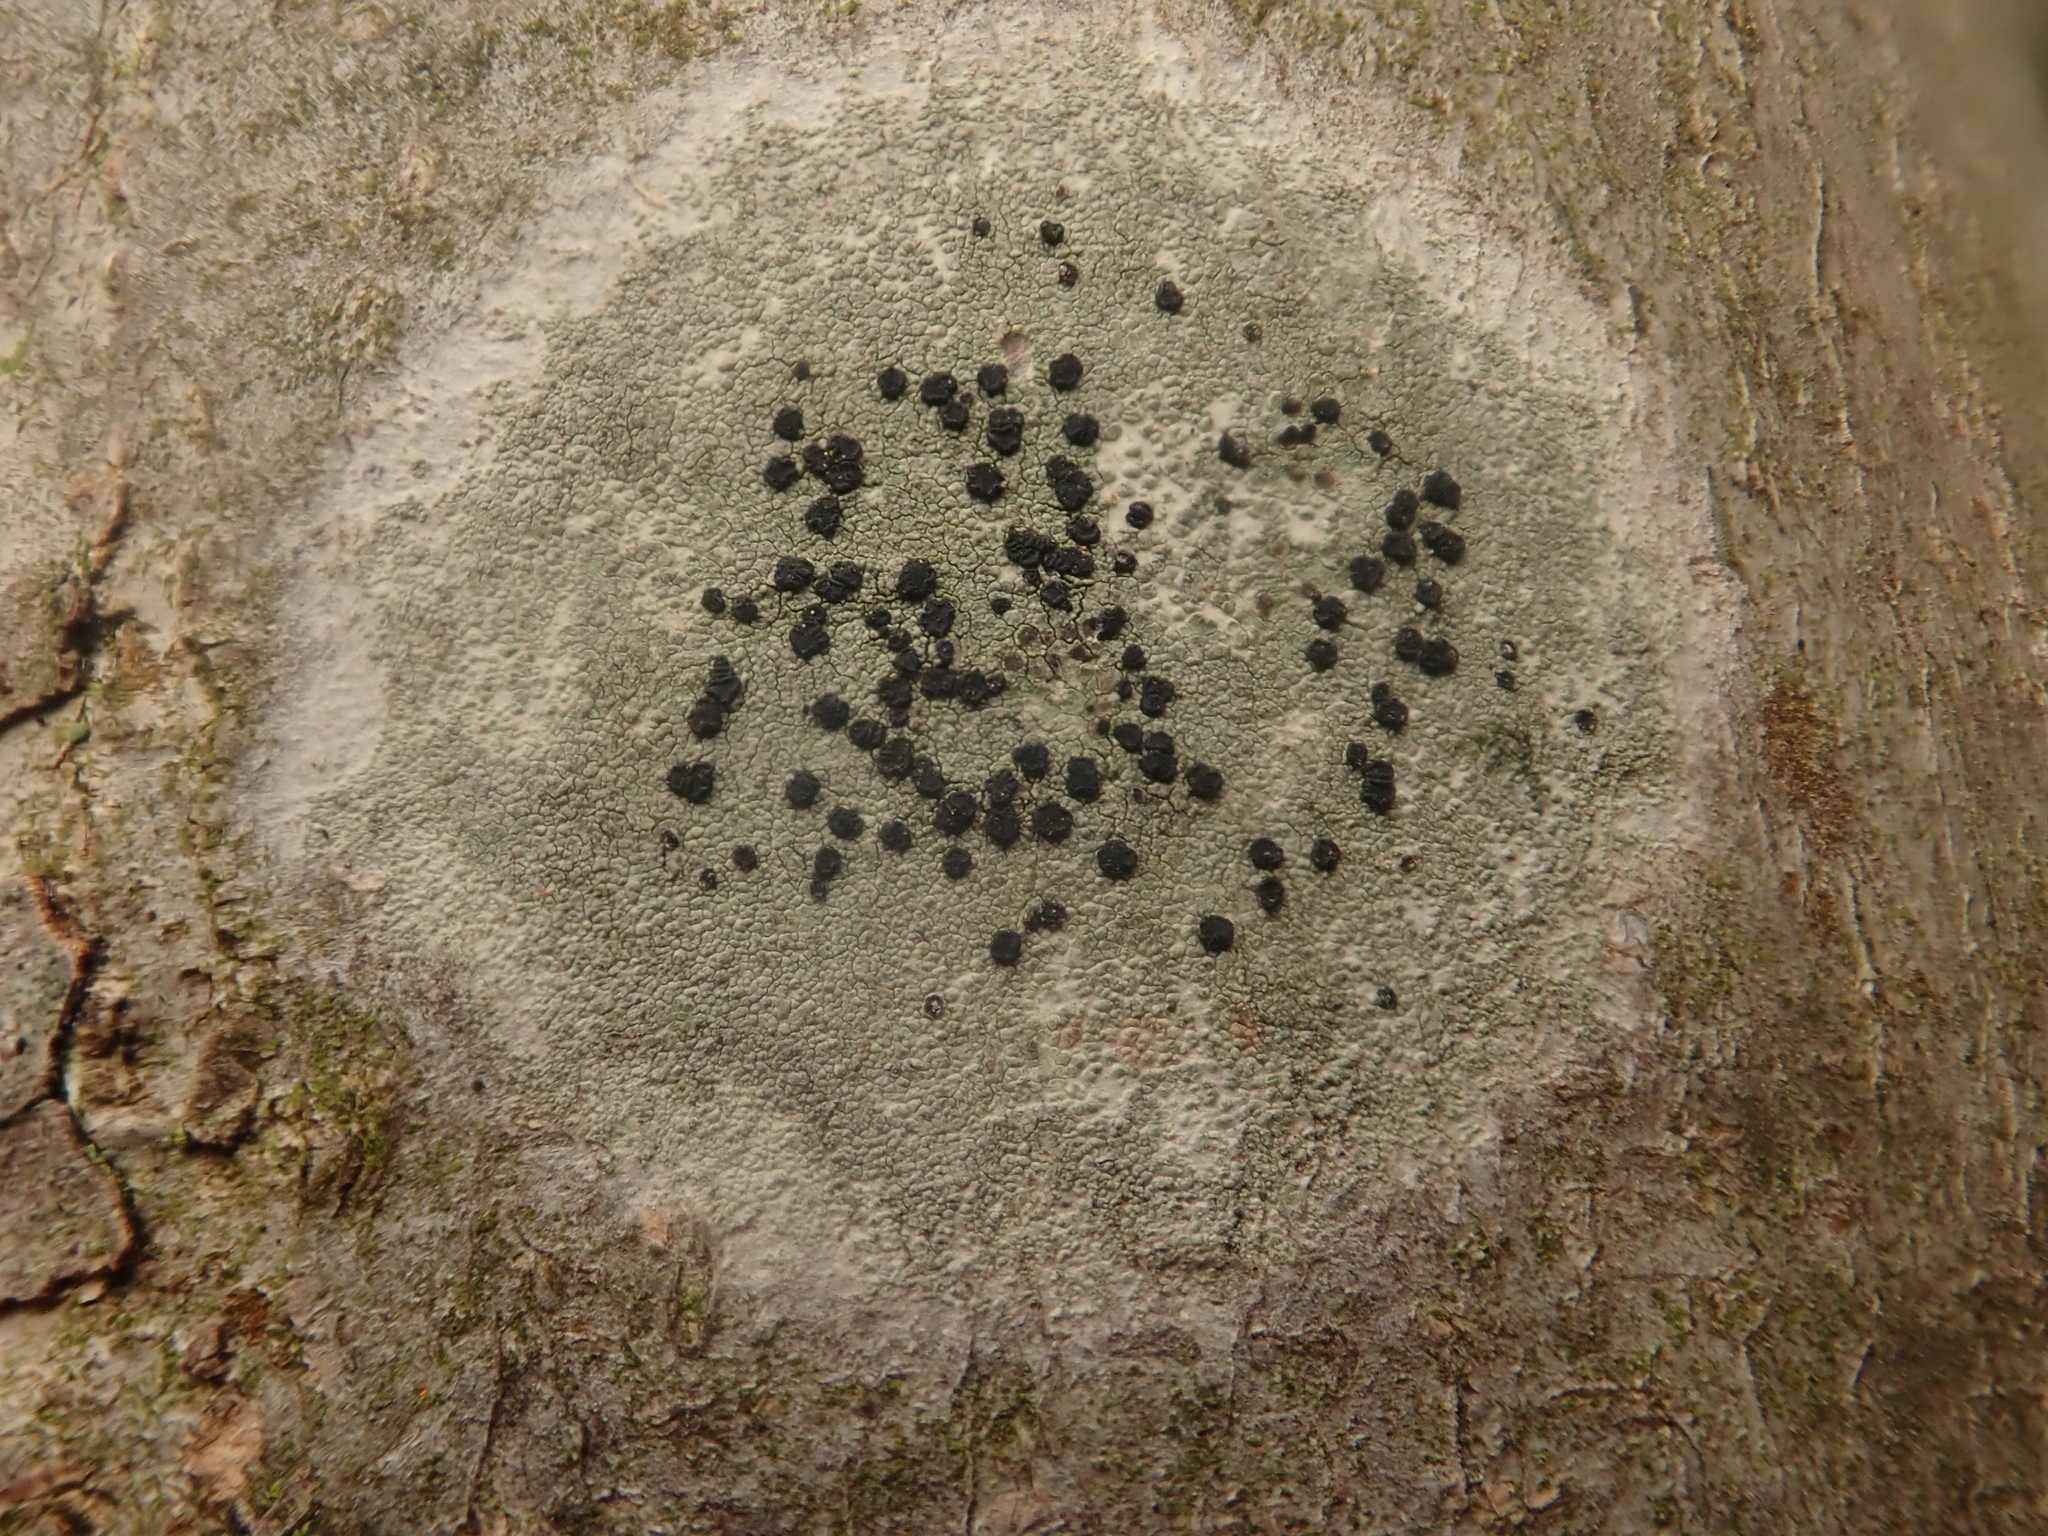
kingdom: Fungi
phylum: Ascomycota
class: Lecanoromycetes
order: Lecanorales
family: Lecanoraceae
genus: Lecidella
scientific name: Lecidella elaeochroma
